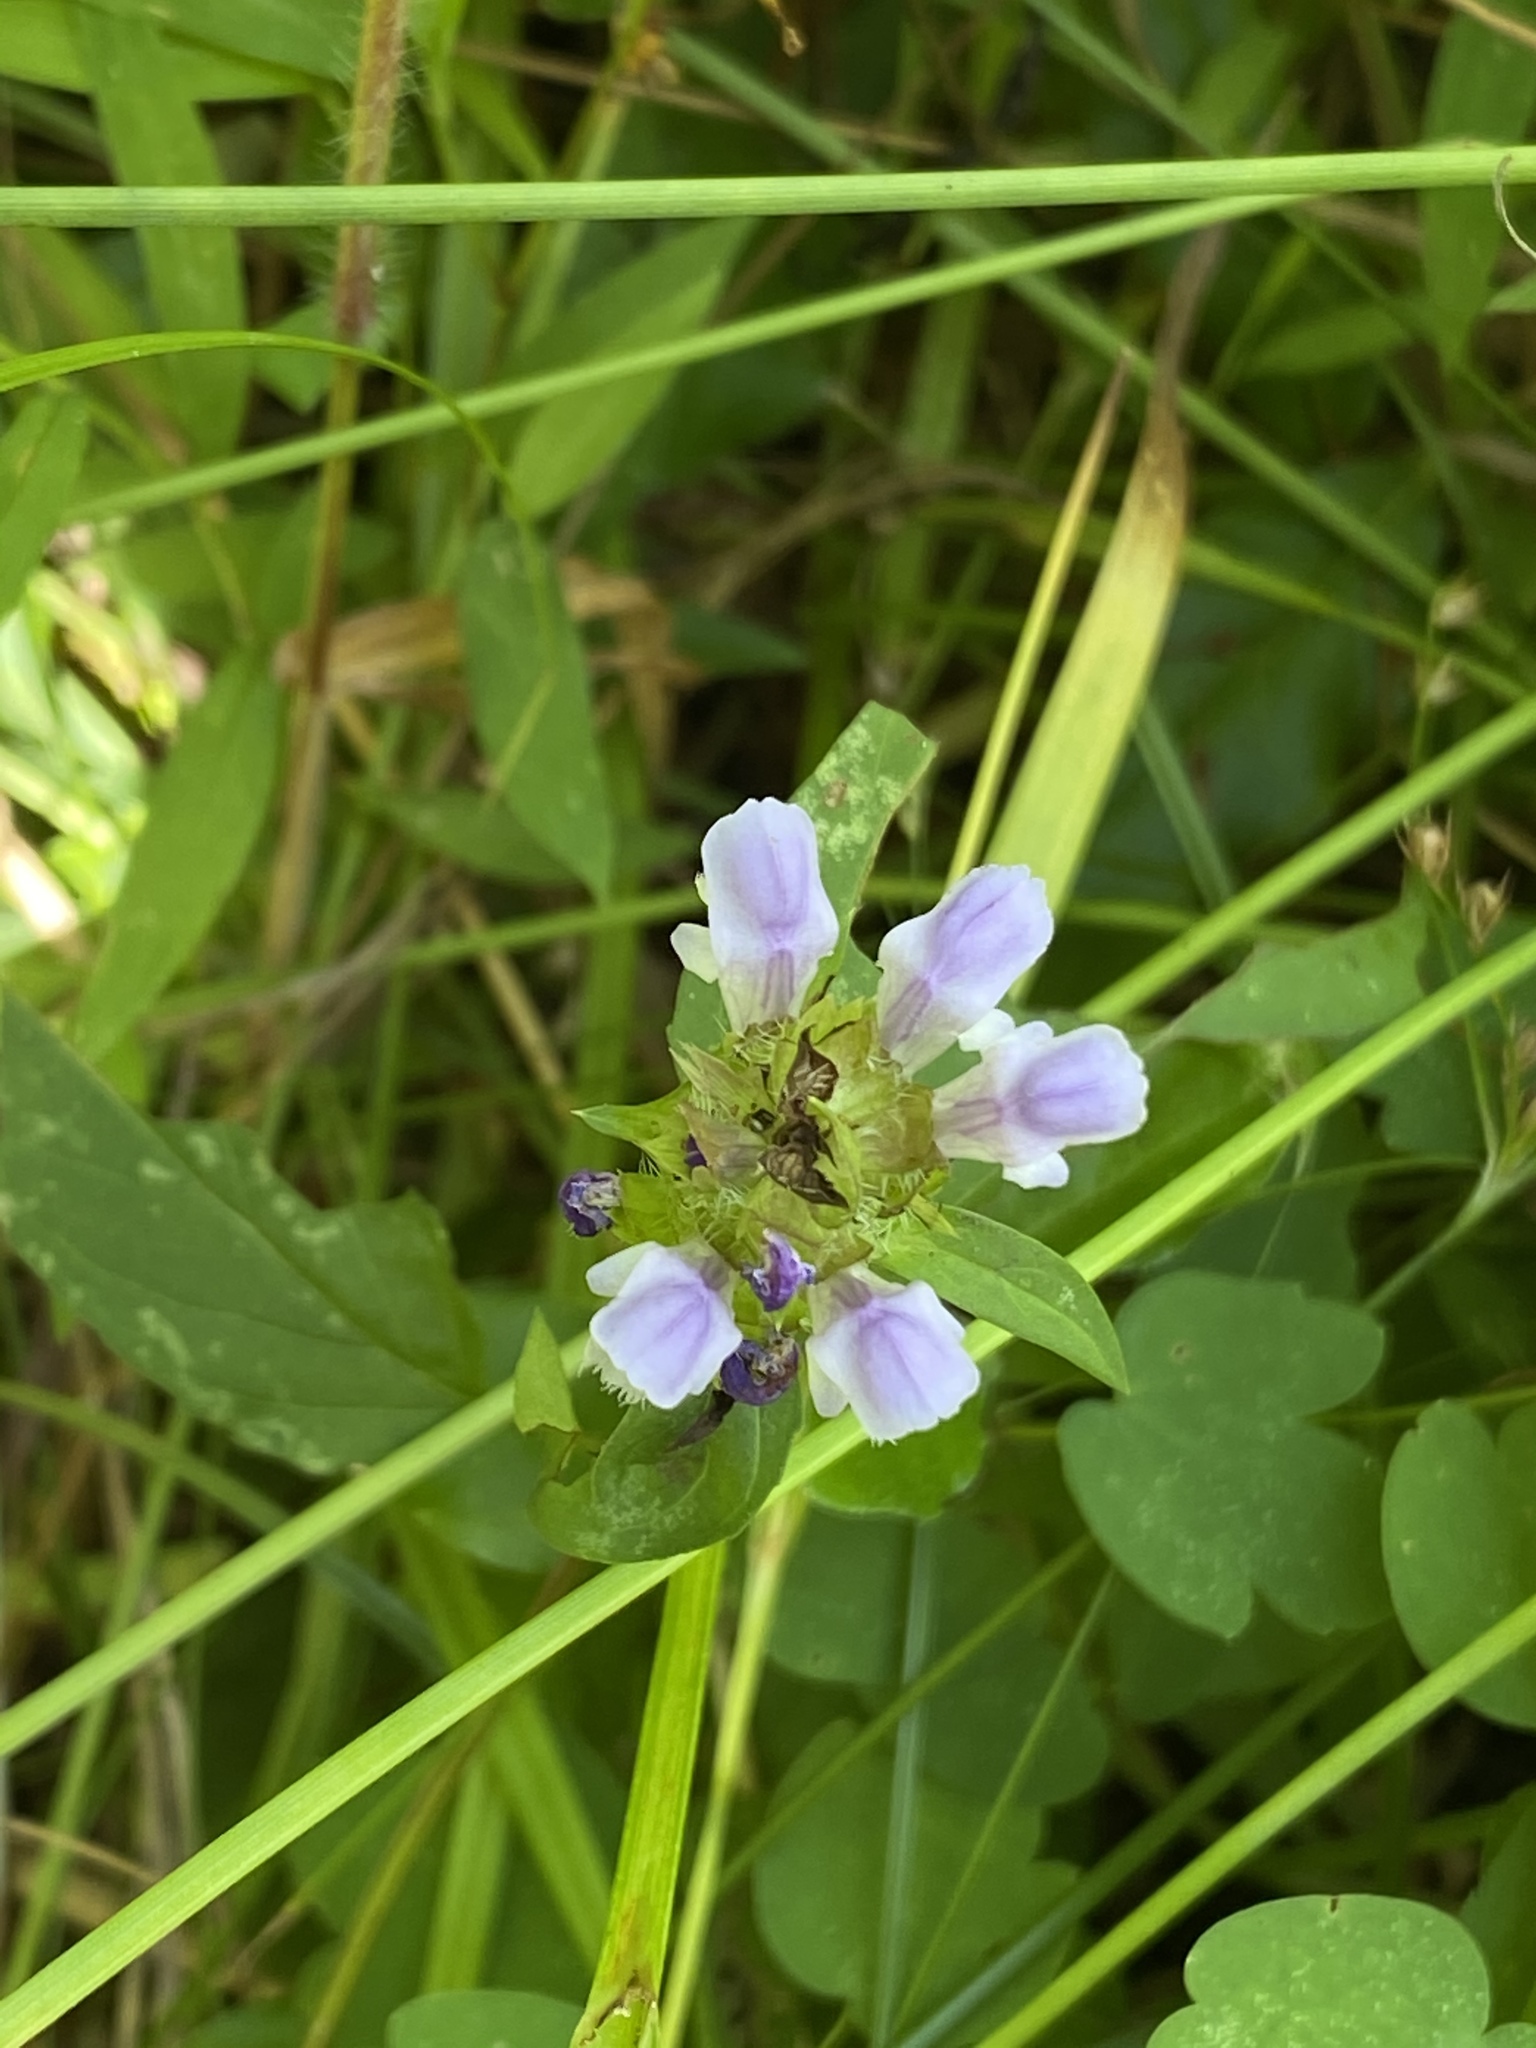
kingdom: Plantae
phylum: Tracheophyta
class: Magnoliopsida
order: Lamiales
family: Lamiaceae
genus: Prunella
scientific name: Prunella vulgaris
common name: Heal-all
